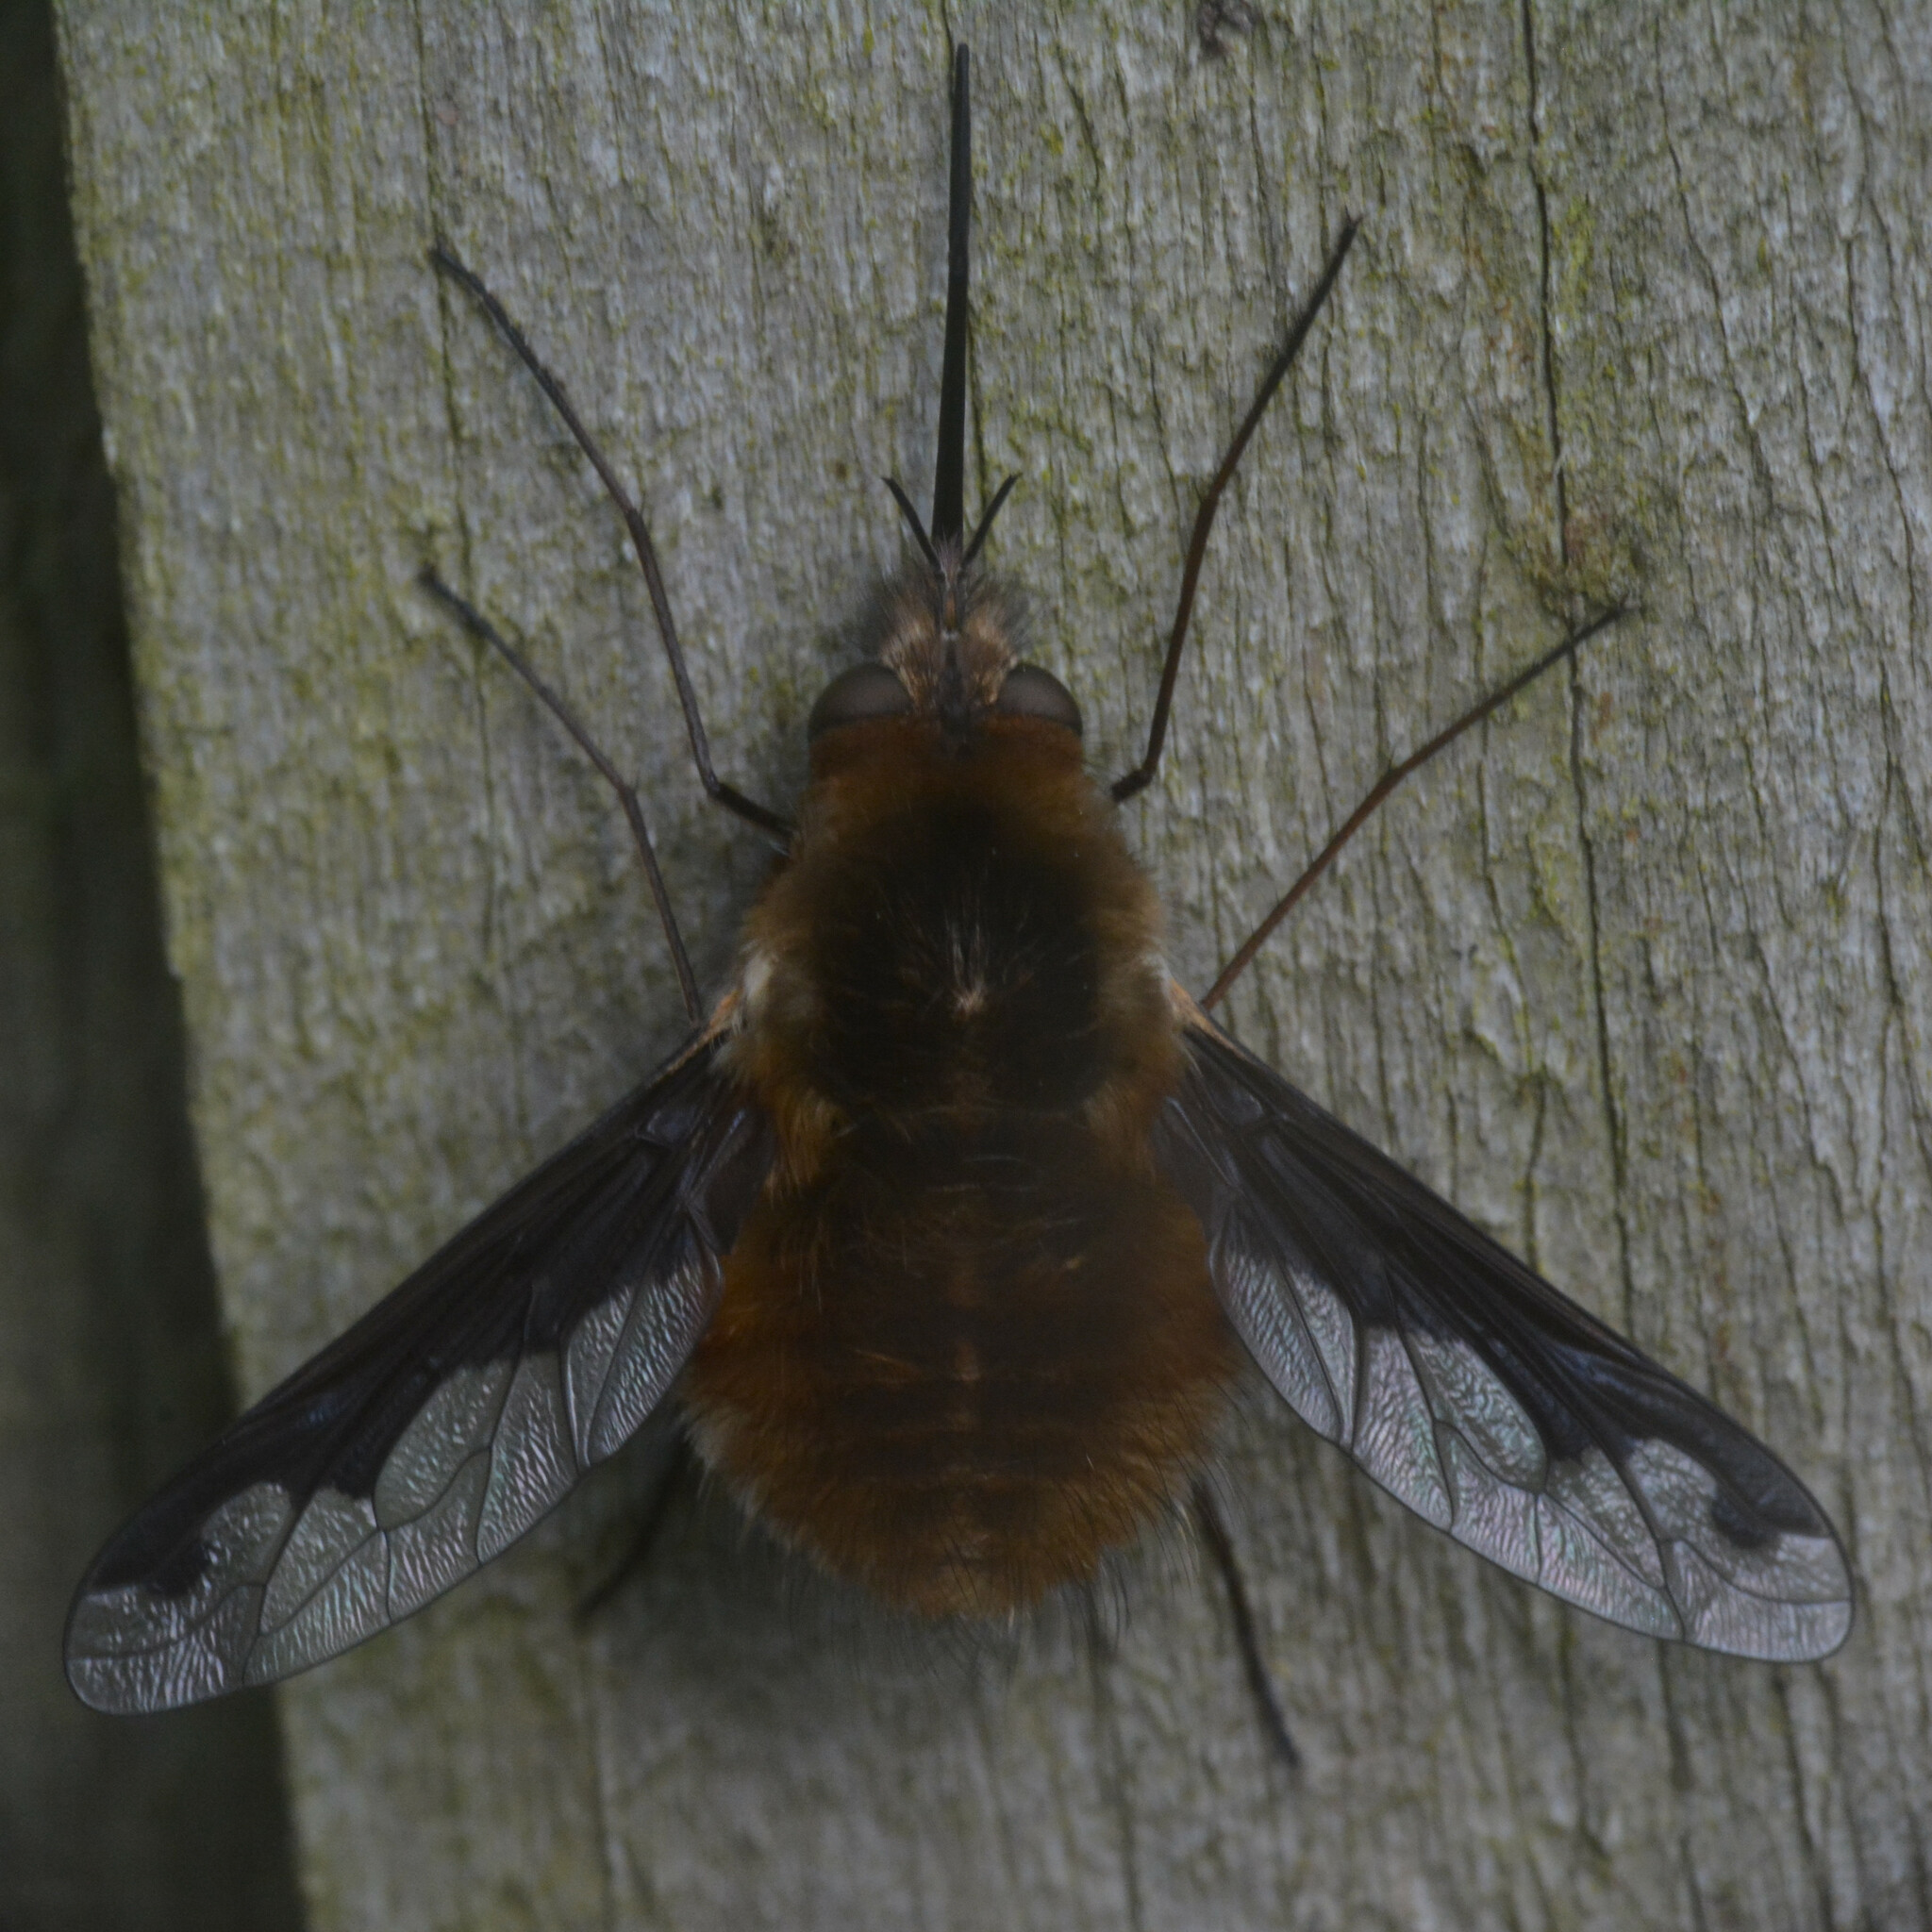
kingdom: Animalia
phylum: Arthropoda
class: Insecta
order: Diptera
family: Bombyliidae
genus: Bombylius
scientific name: Bombylius major
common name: Bee fly
